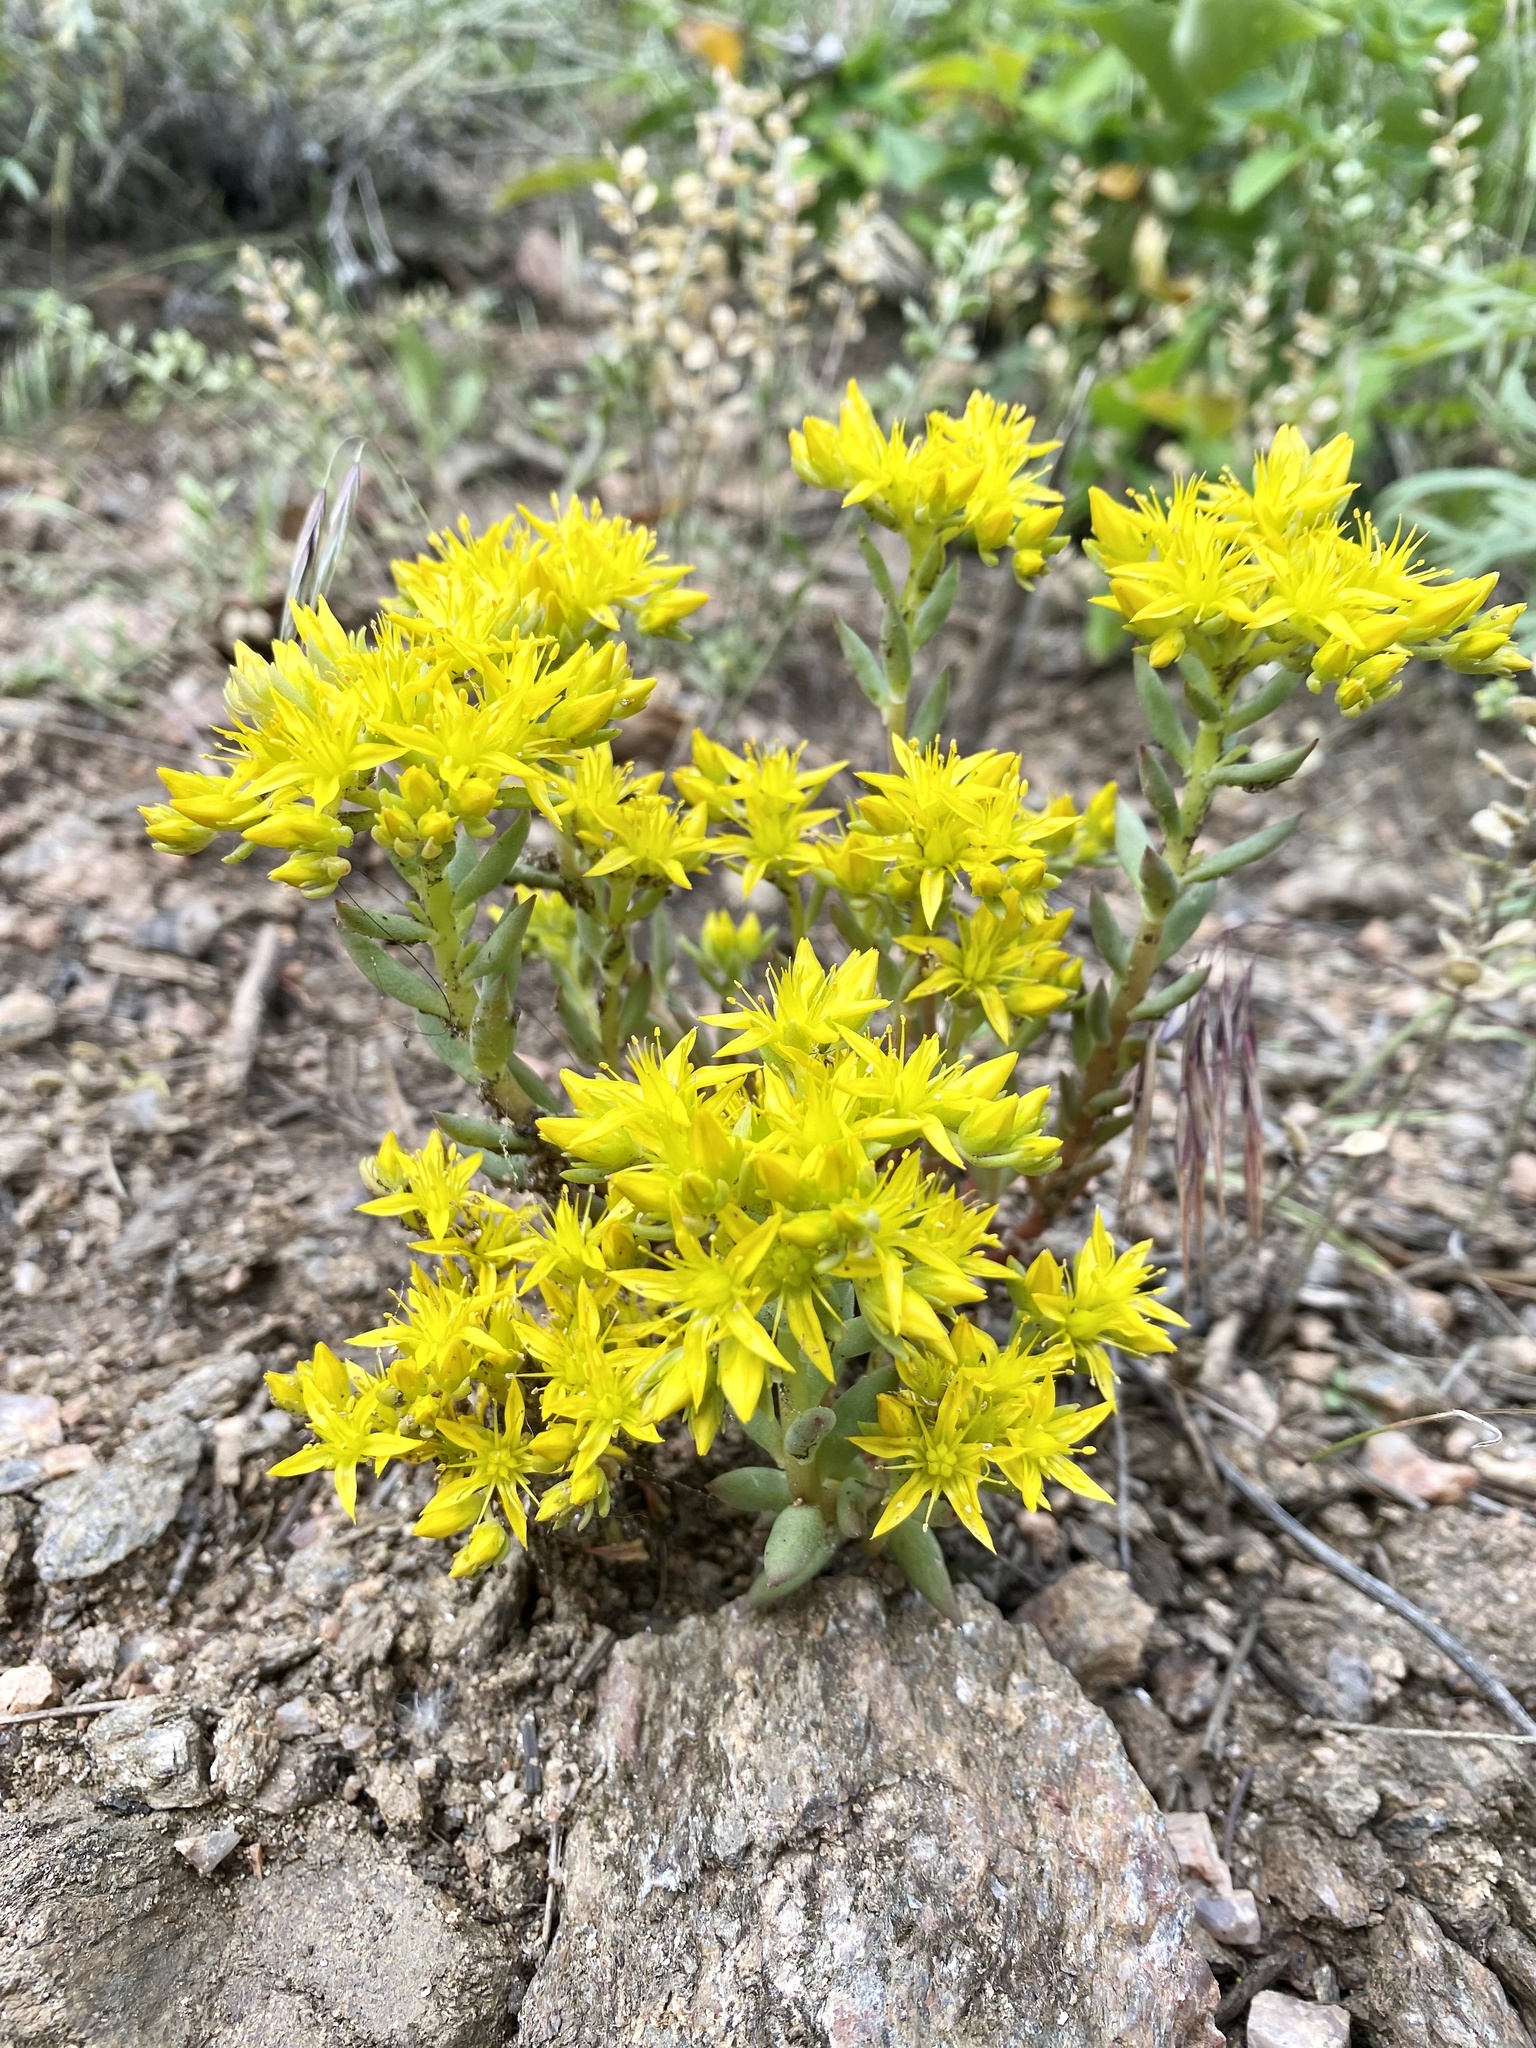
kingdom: Plantae
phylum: Tracheophyta
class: Magnoliopsida
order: Saxifragales
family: Crassulaceae
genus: Sedum
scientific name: Sedum lanceolatum
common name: Common stonecrop
